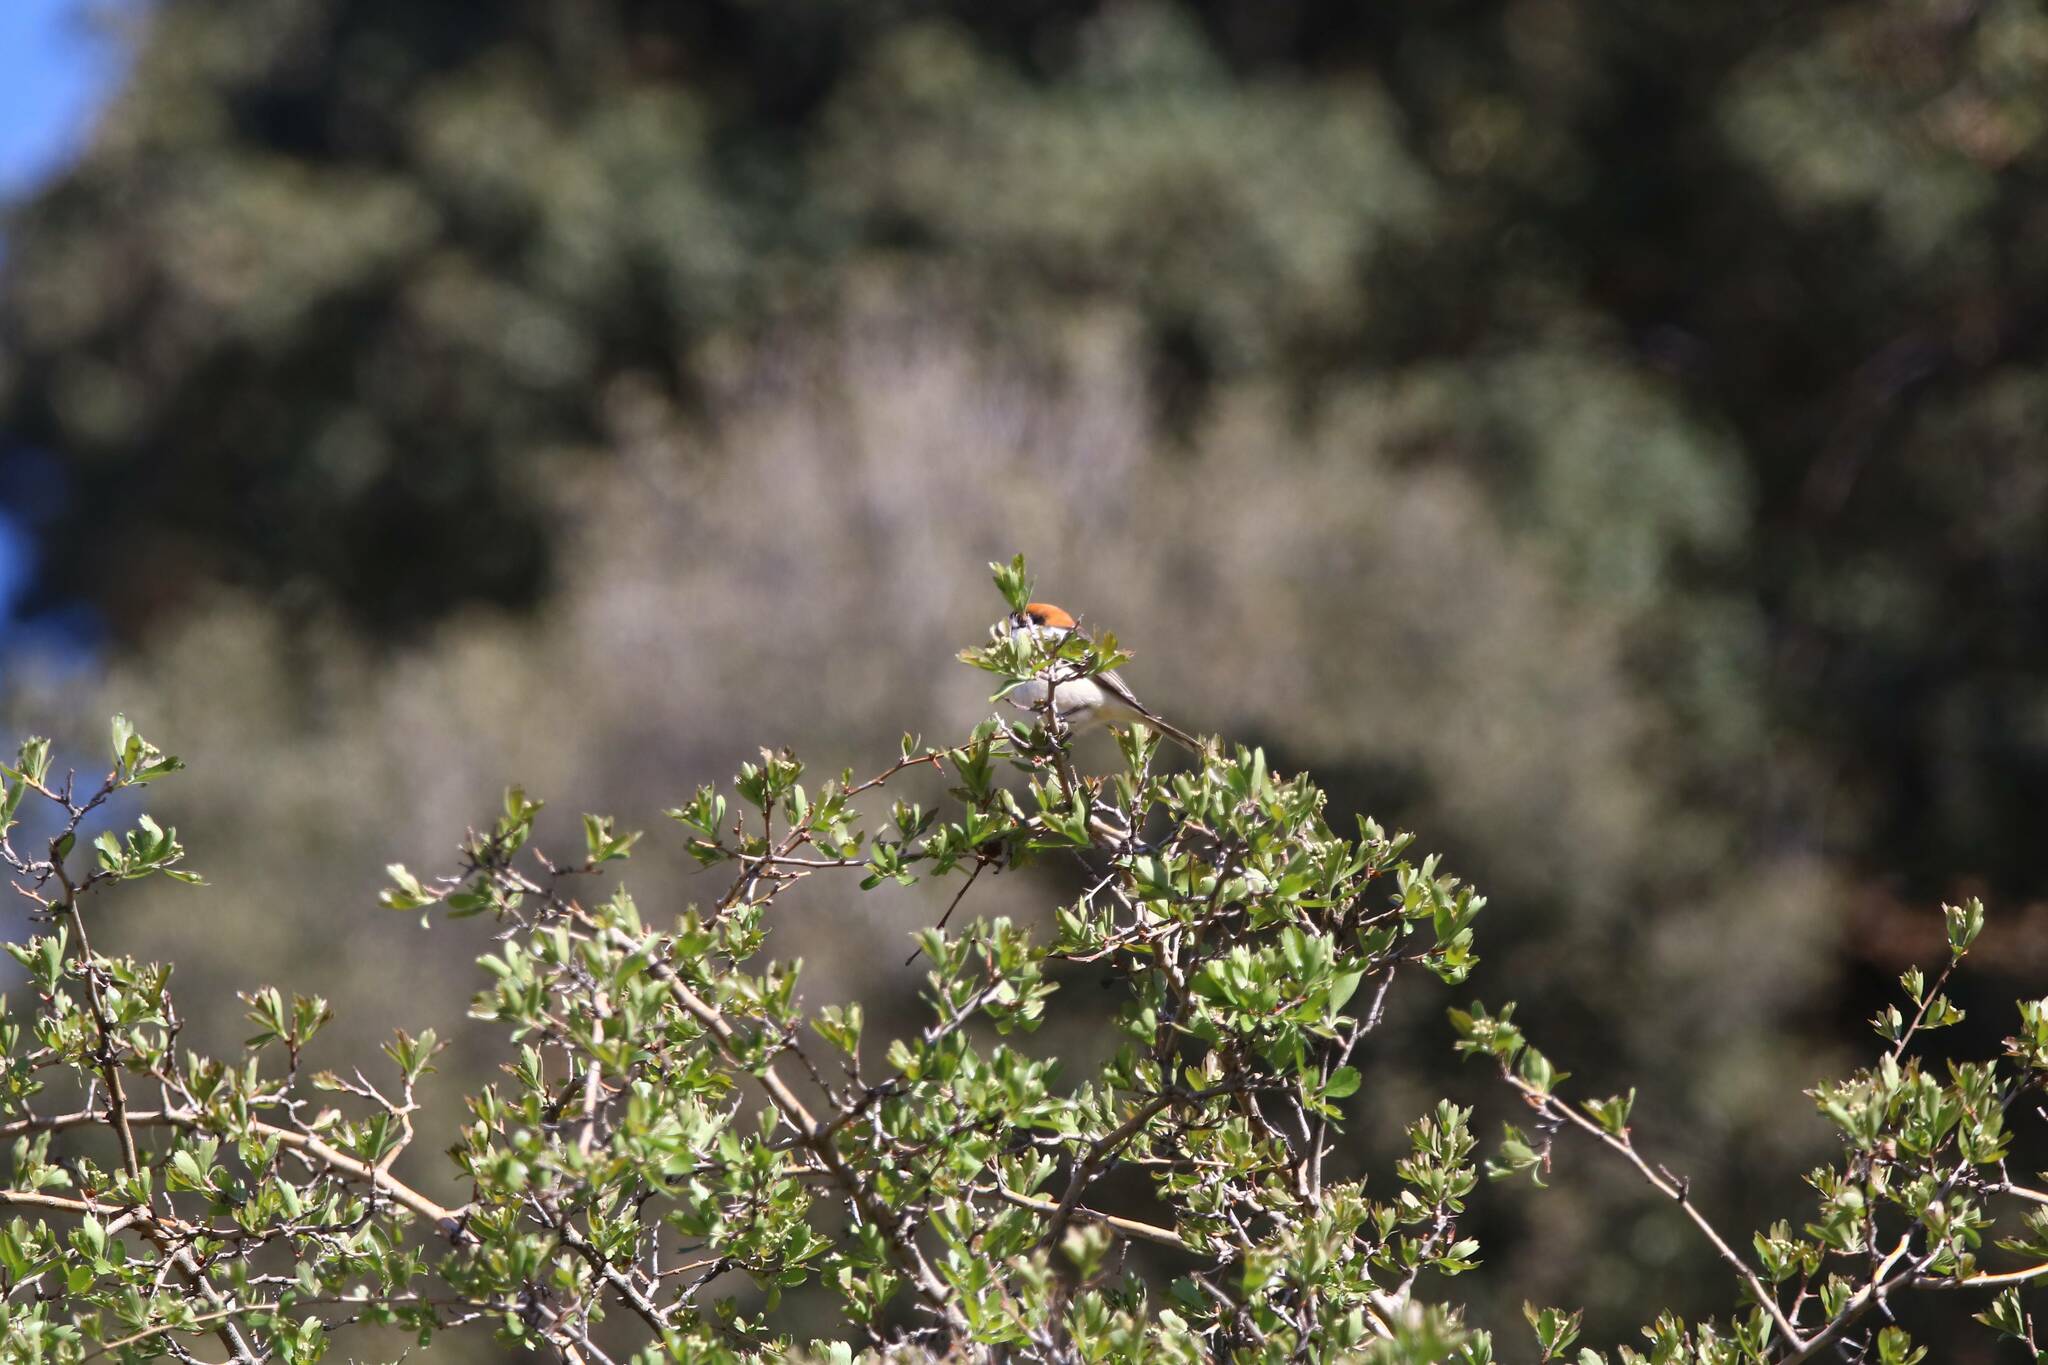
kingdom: Animalia
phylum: Chordata
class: Aves
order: Passeriformes
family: Laniidae
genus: Lanius
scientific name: Lanius senator
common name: Woodchat shrike
